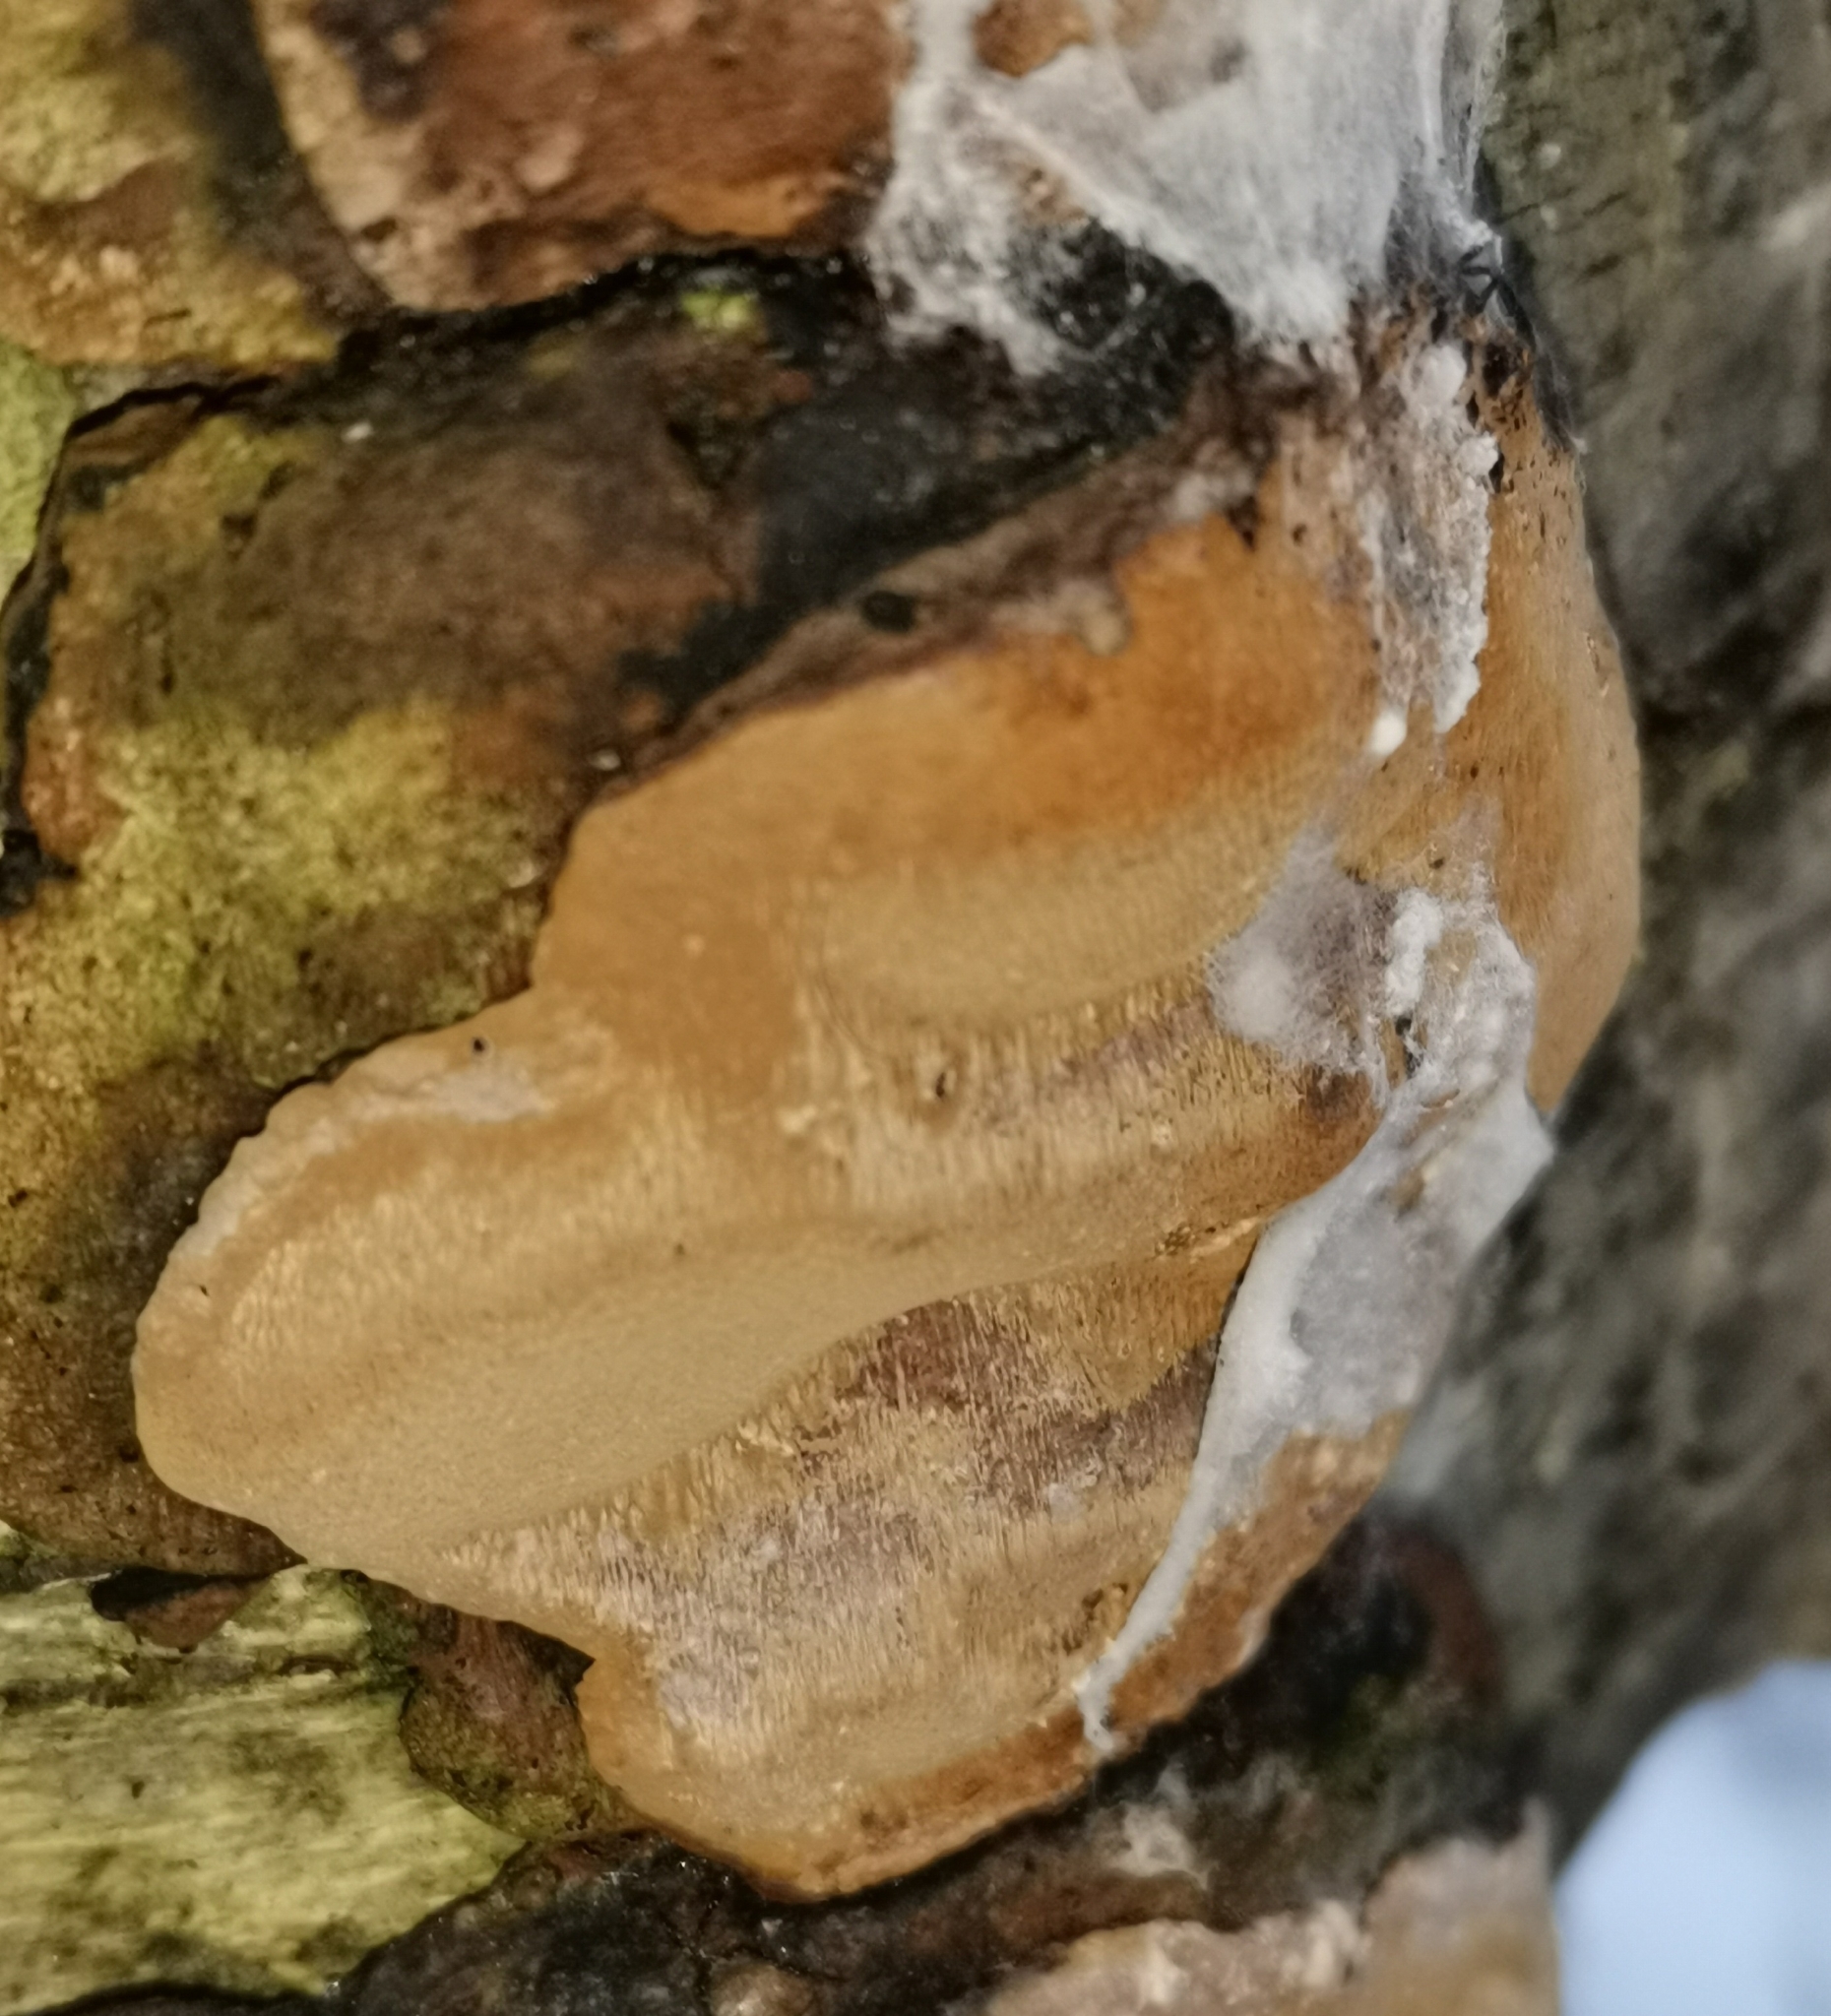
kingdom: Fungi
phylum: Basidiomycota
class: Agaricomycetes
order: Hymenochaetales
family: Hymenochaetaceae
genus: Phellinus
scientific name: Phellinus lundellii
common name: Birch bristle bracket
